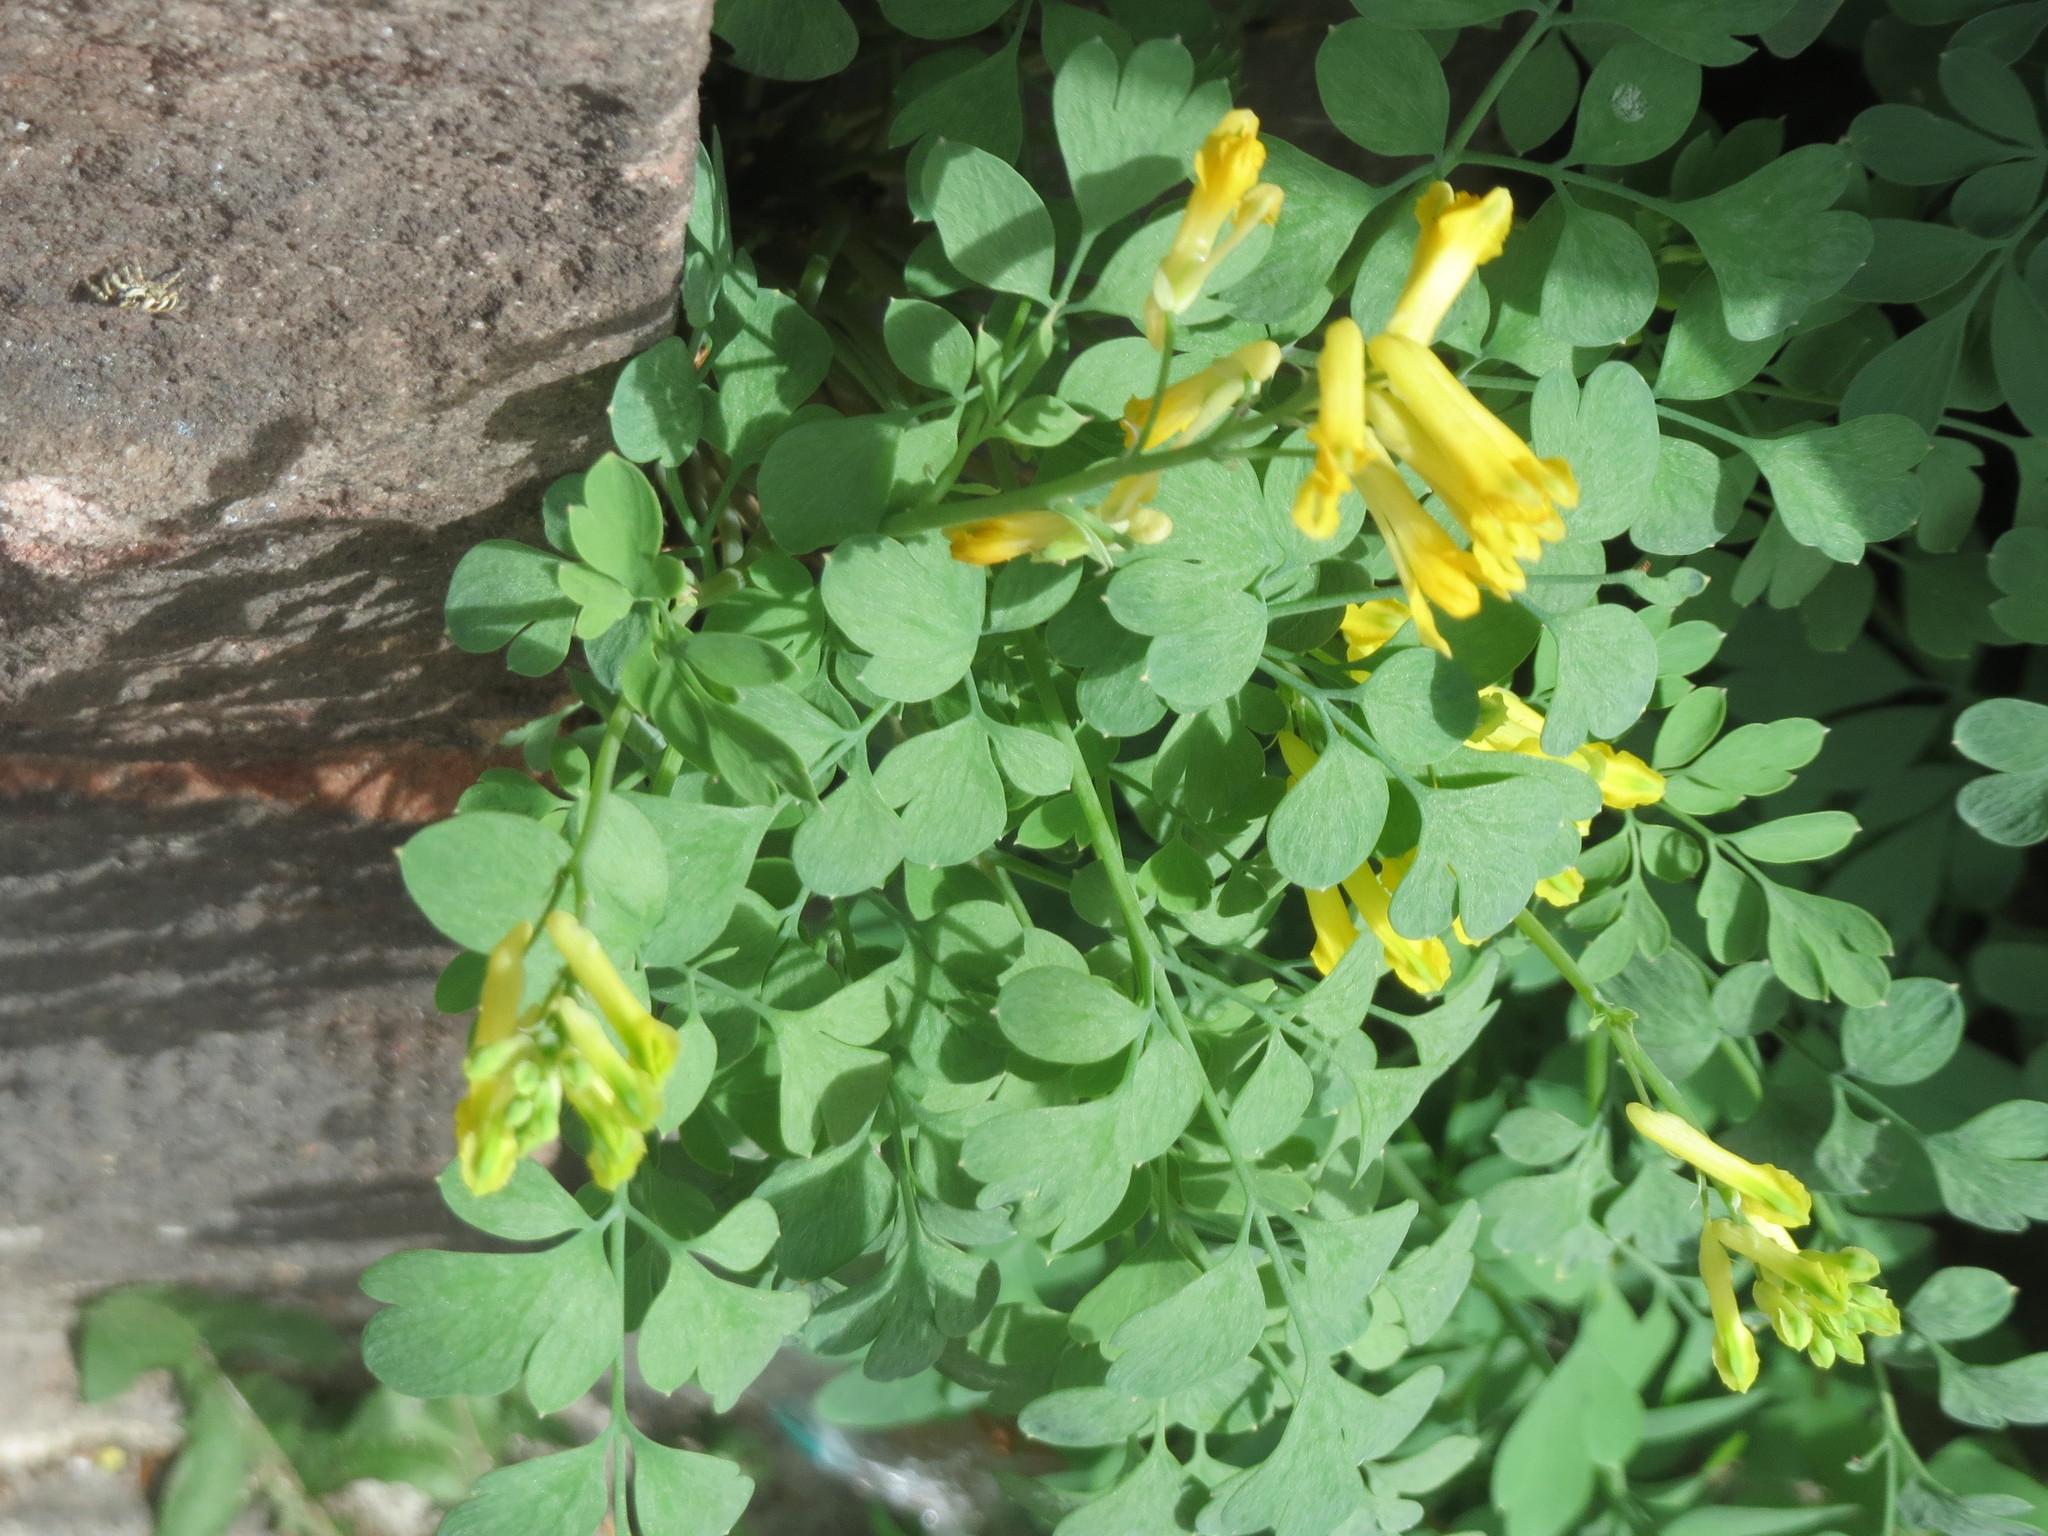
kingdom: Plantae
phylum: Tracheophyta
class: Magnoliopsida
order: Ranunculales
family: Papaveraceae
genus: Pseudofumaria
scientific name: Pseudofumaria lutea
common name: Yellow corydalis
